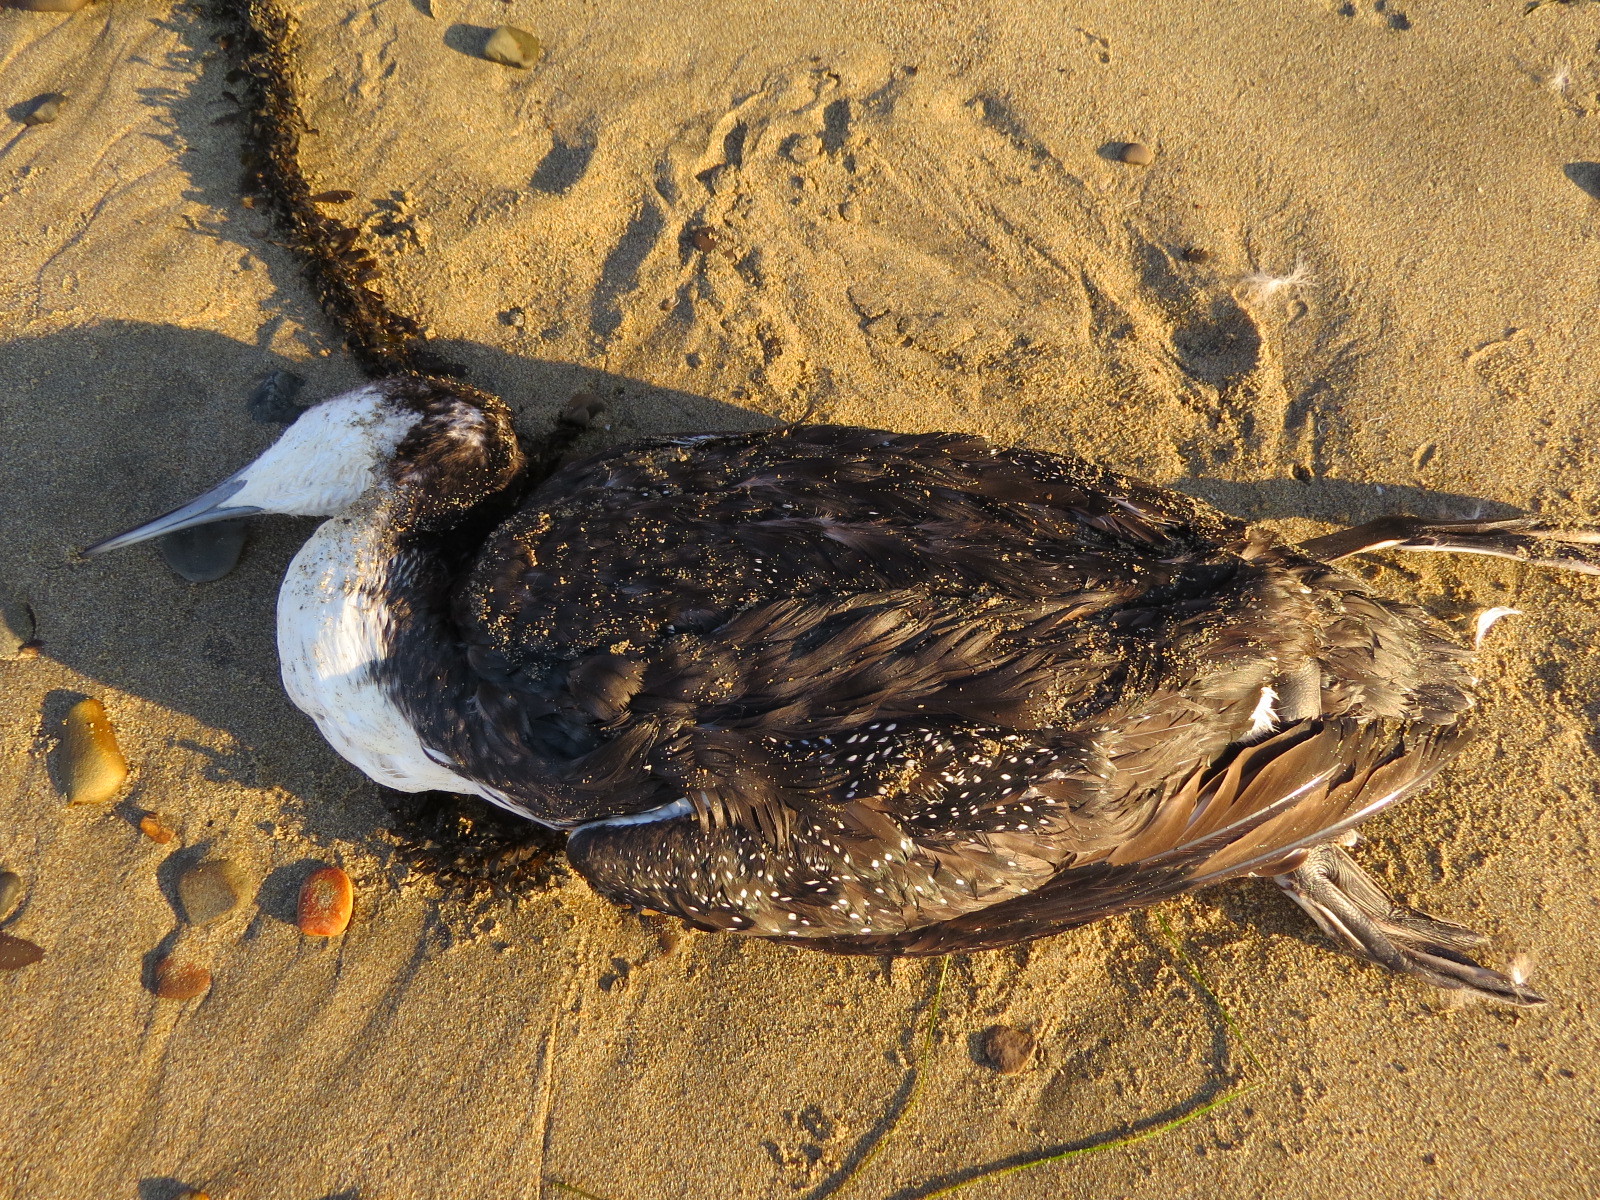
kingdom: Animalia
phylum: Chordata
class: Aves
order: Gaviiformes
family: Gaviidae
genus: Gavia
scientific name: Gavia immer
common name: Common loon
